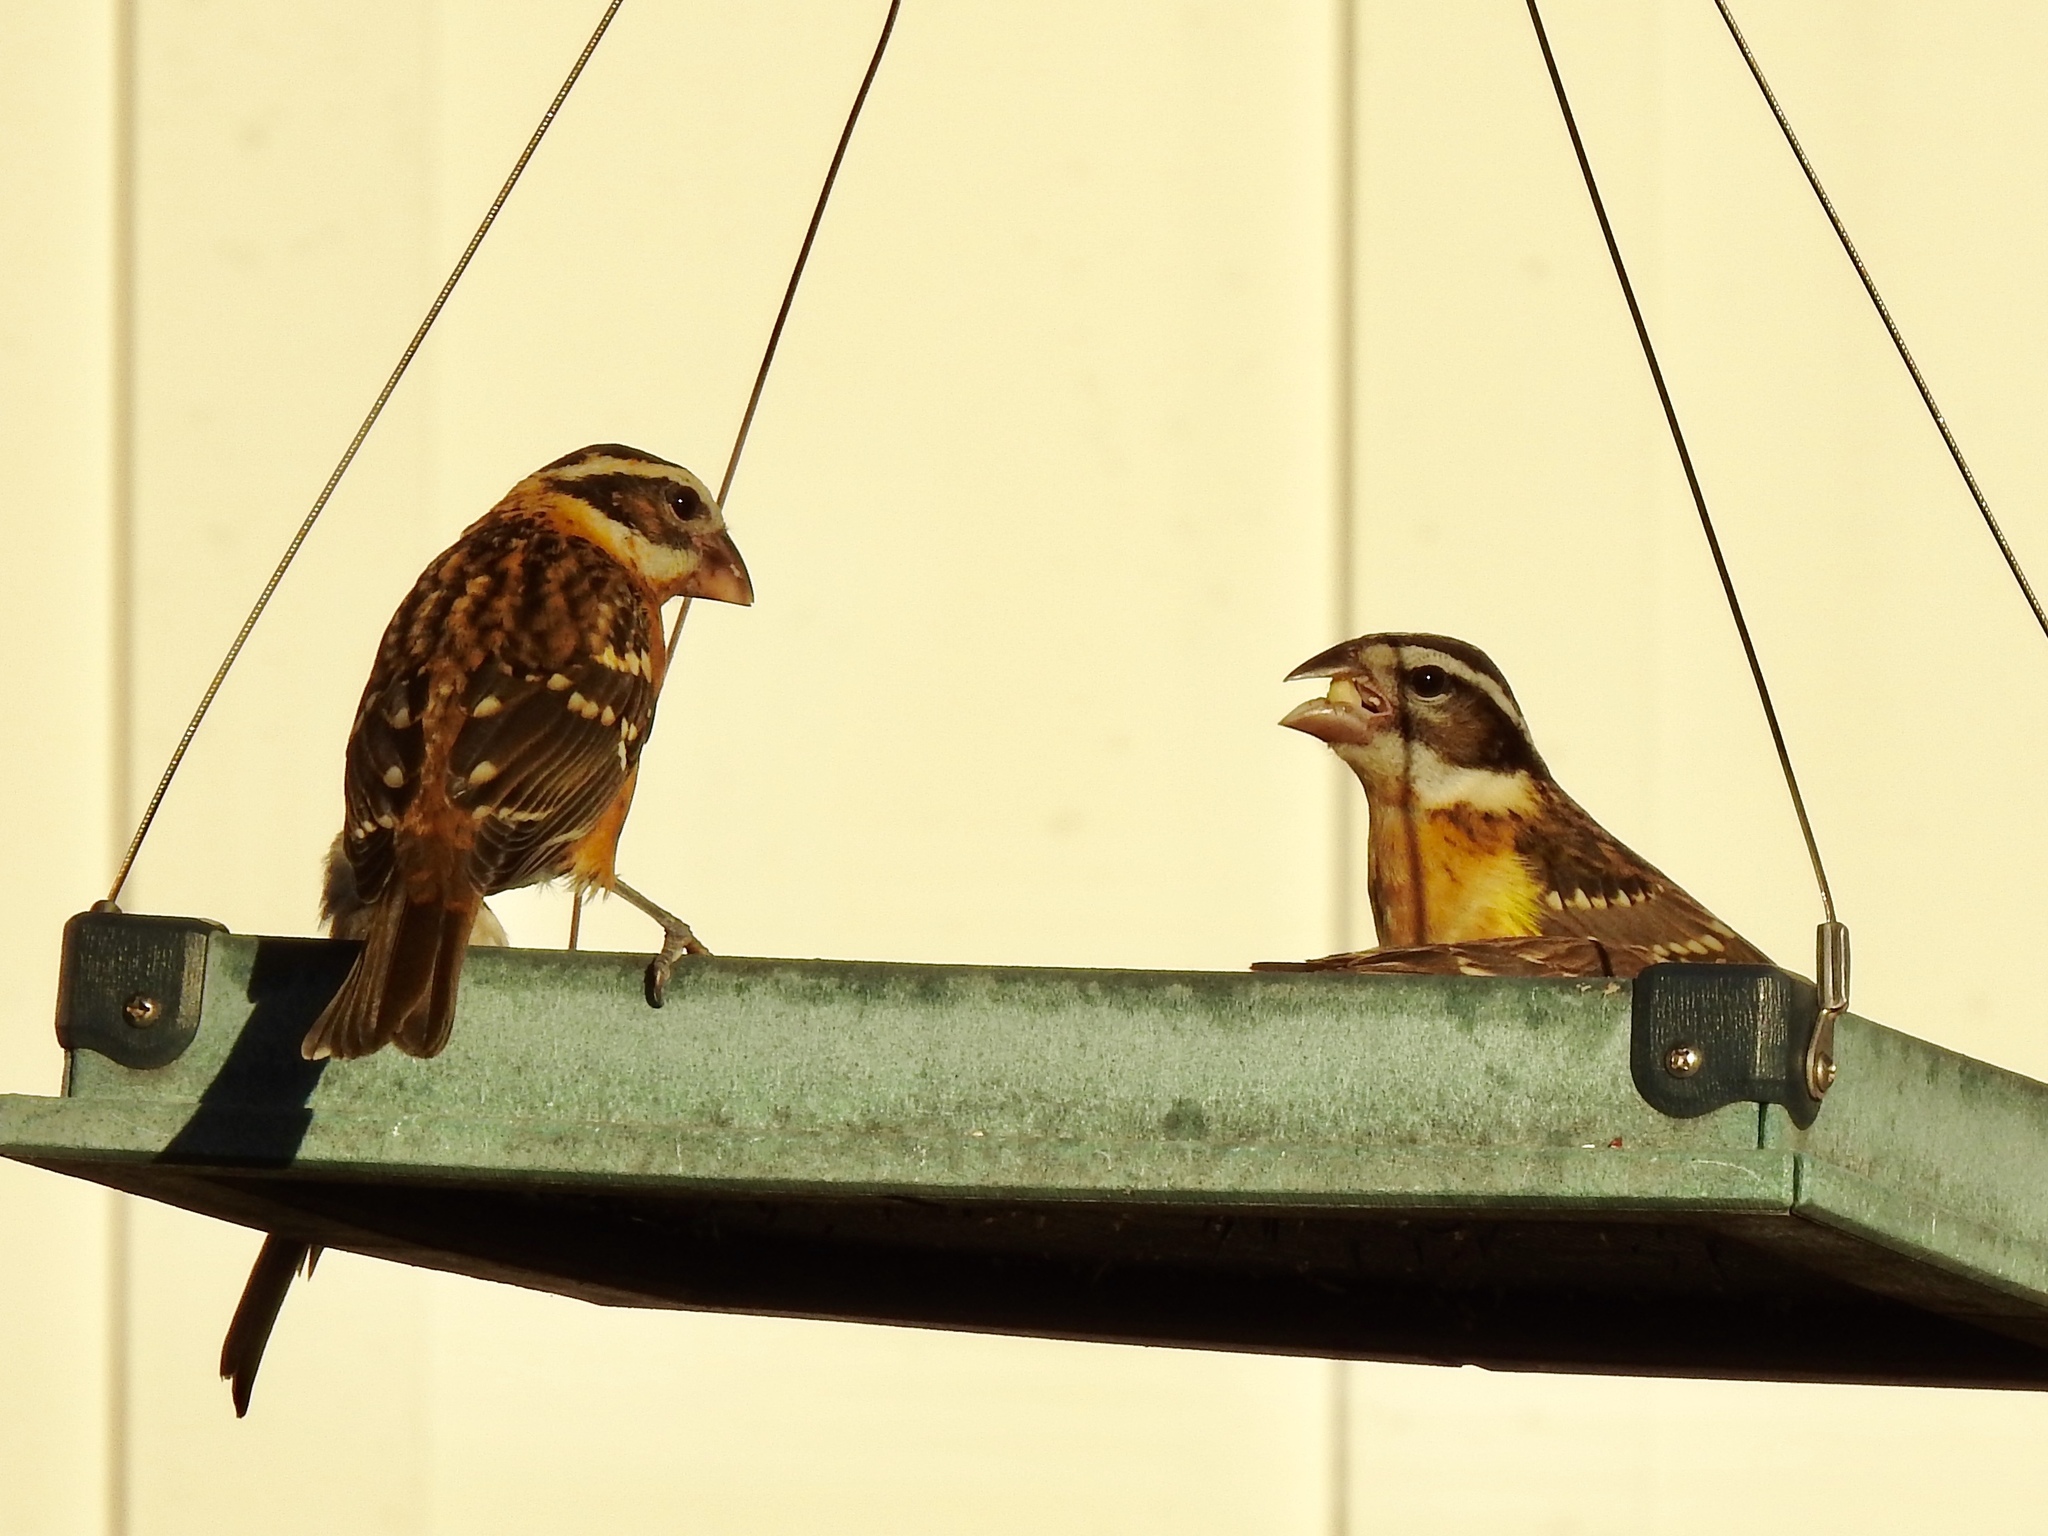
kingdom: Animalia
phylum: Chordata
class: Aves
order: Passeriformes
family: Cardinalidae
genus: Pheucticus
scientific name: Pheucticus melanocephalus
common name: Black-headed grosbeak
